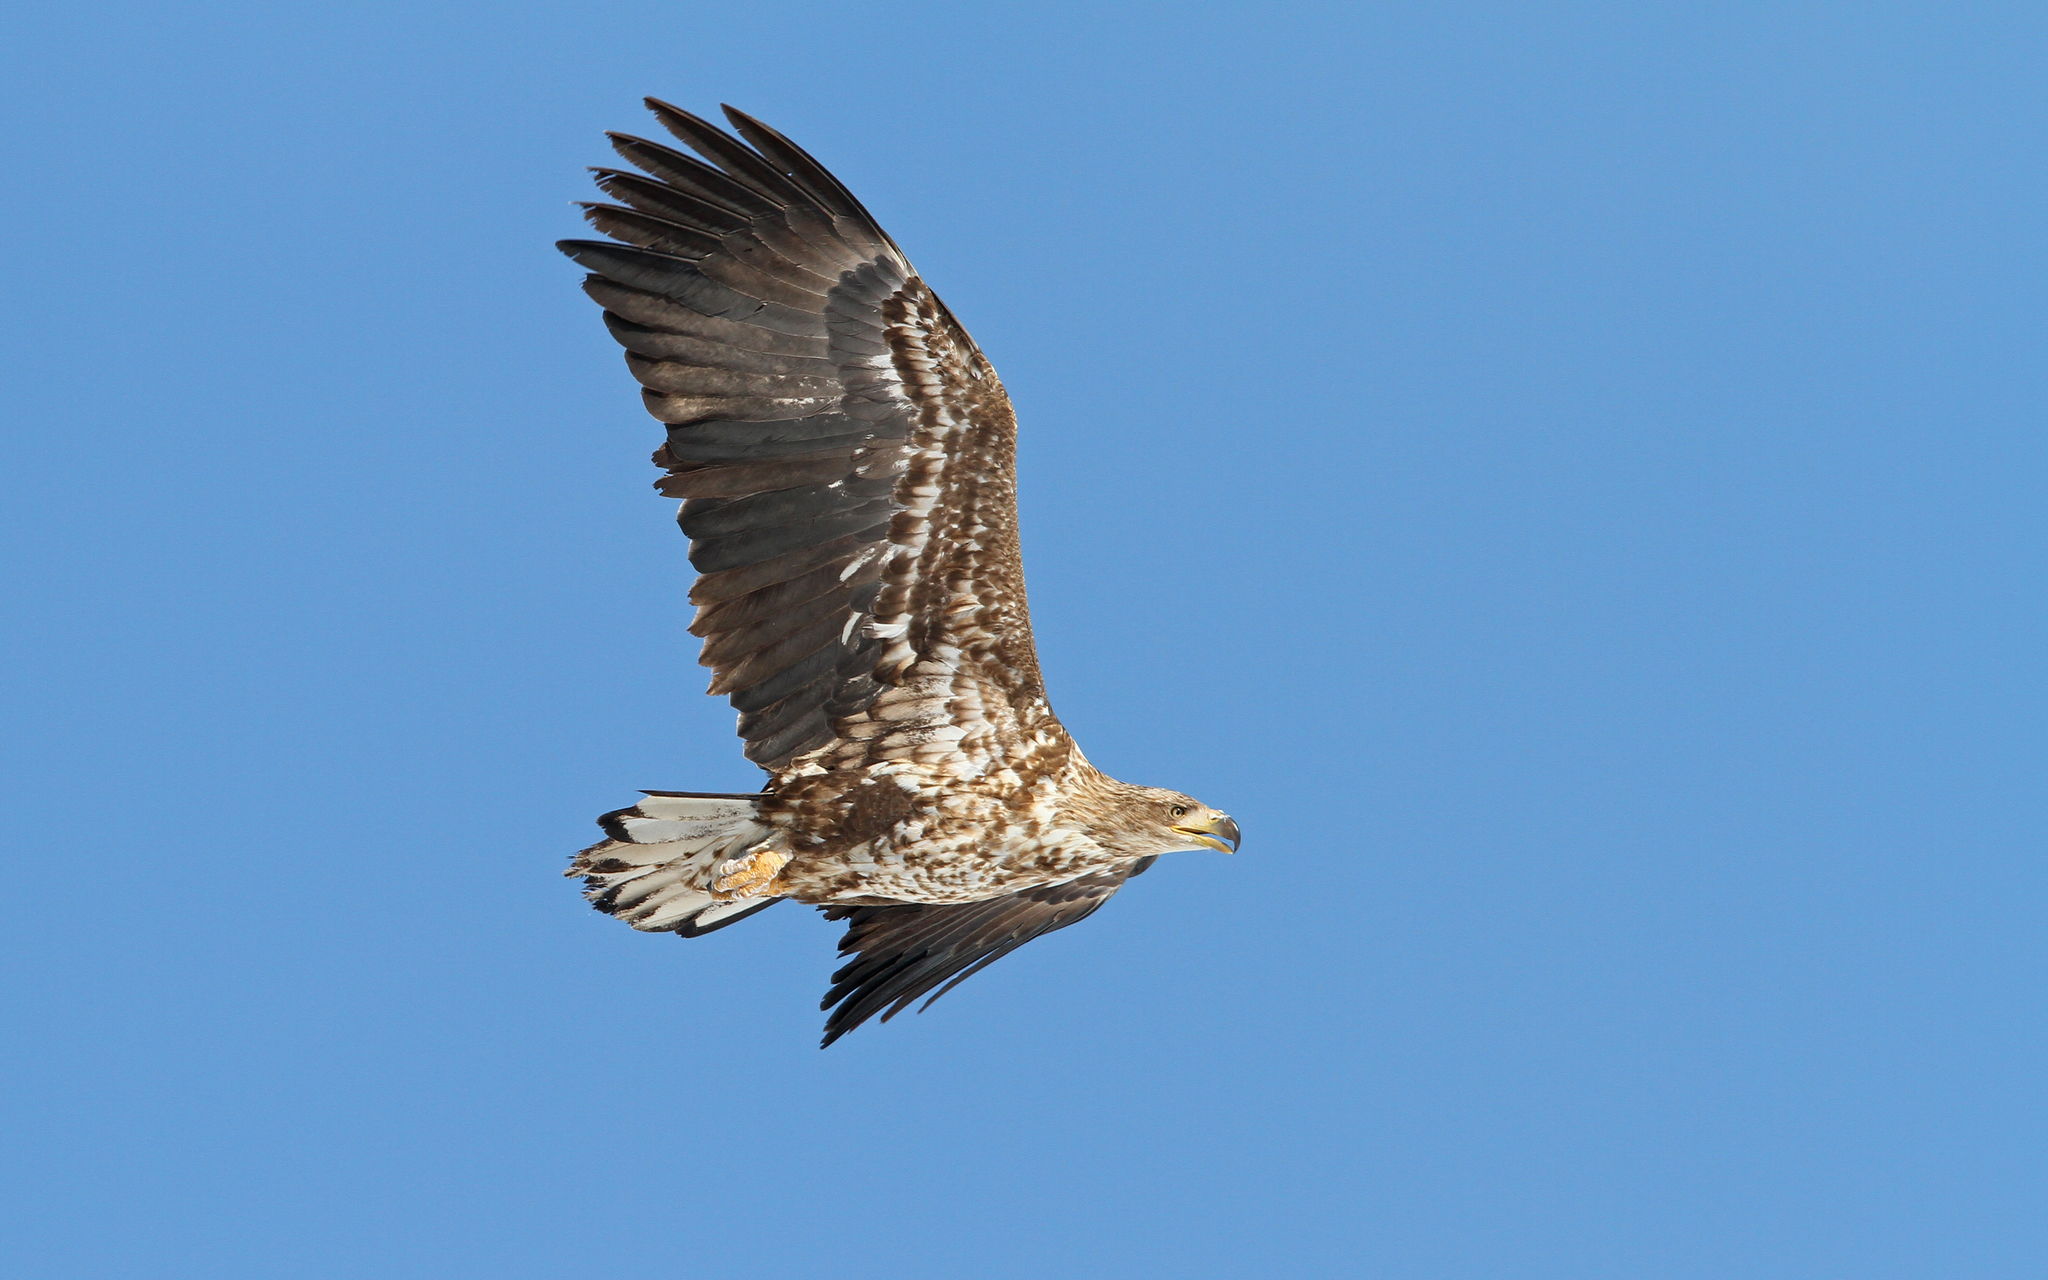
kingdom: Animalia
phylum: Chordata
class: Aves
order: Accipitriformes
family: Accipitridae
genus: Haliaeetus
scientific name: Haliaeetus albicilla
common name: White-tailed eagle
